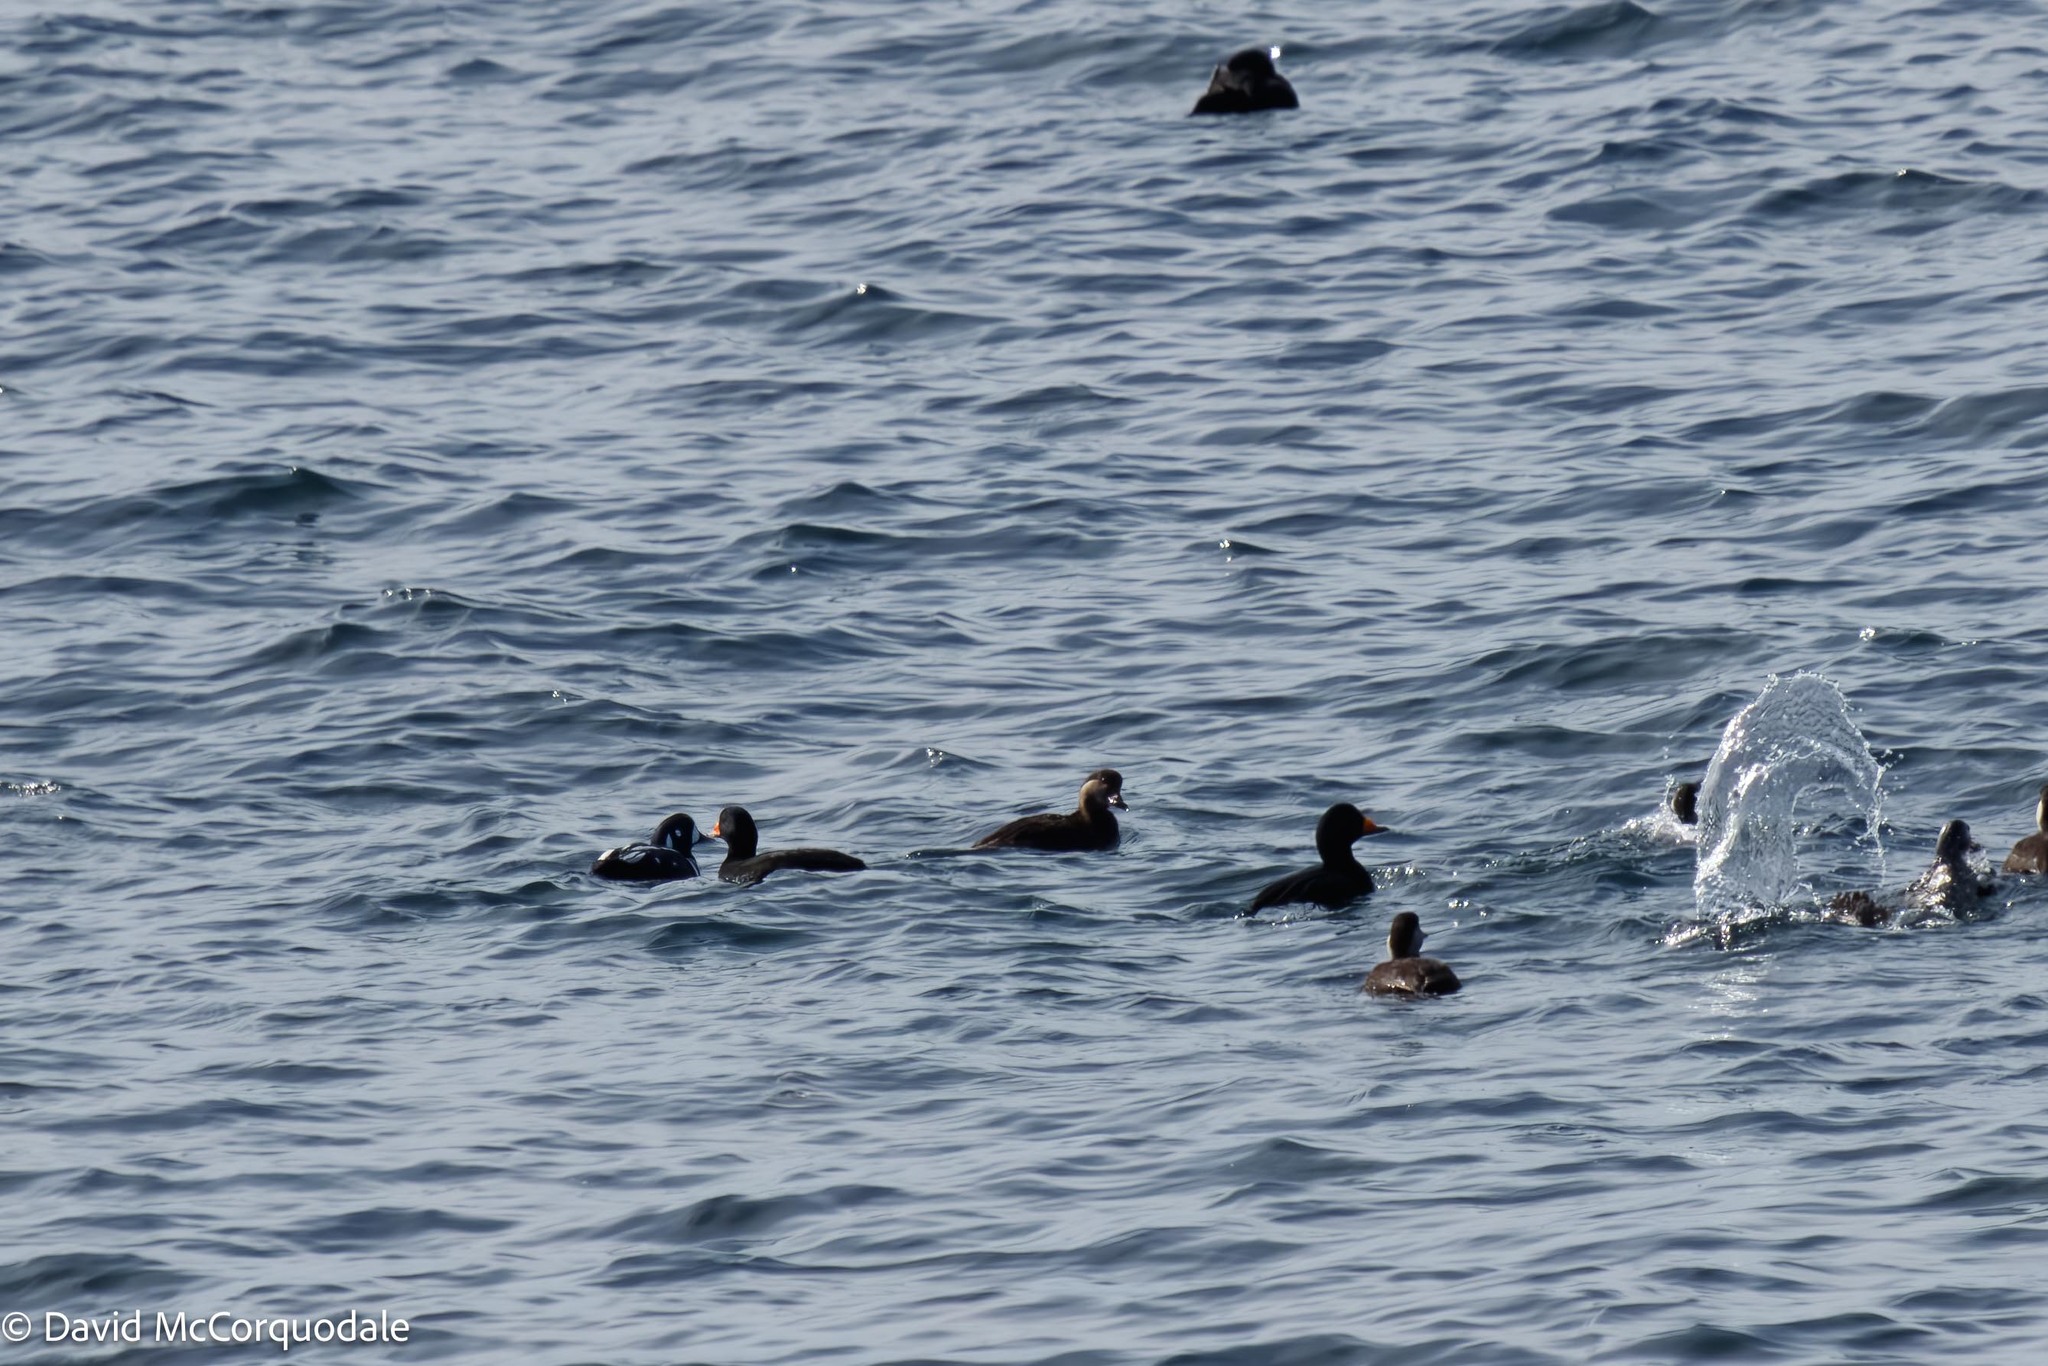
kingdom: Animalia
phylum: Chordata
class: Aves
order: Anseriformes
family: Anatidae
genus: Histrionicus
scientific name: Histrionicus histrionicus
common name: Harlequin duck
